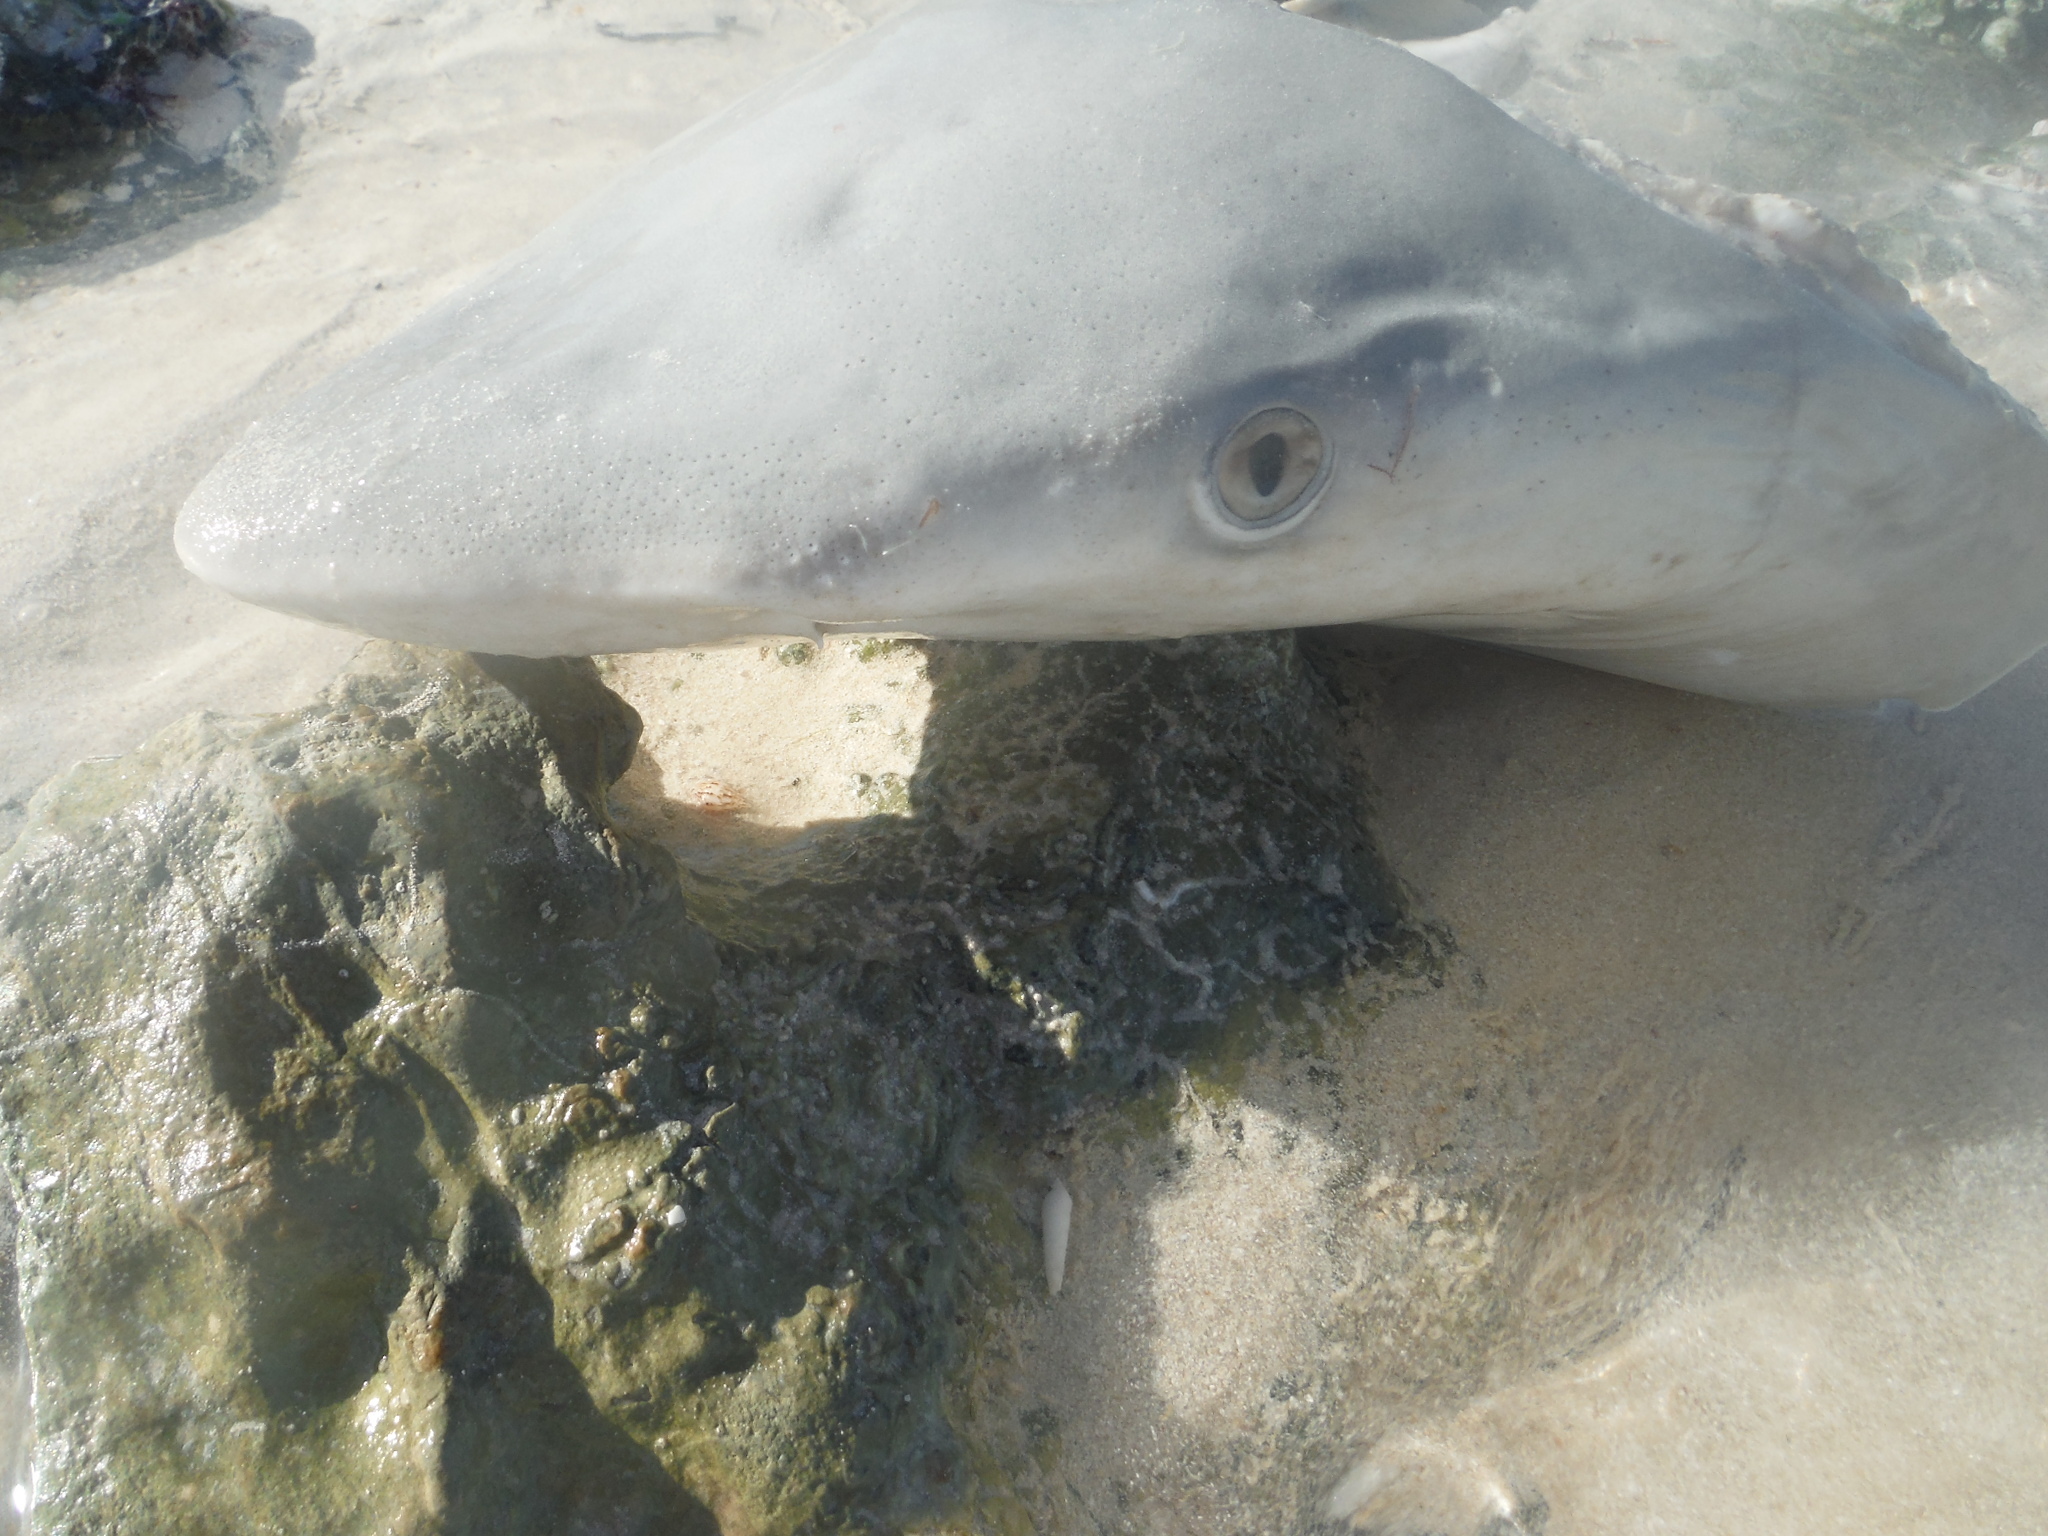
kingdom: Animalia
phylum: Chordata
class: Elasmobranchii
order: Carcharhiniformes
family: Carcharhinidae
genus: Carcharhinus
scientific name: Carcharhinus porosus
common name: Smalltail shark
